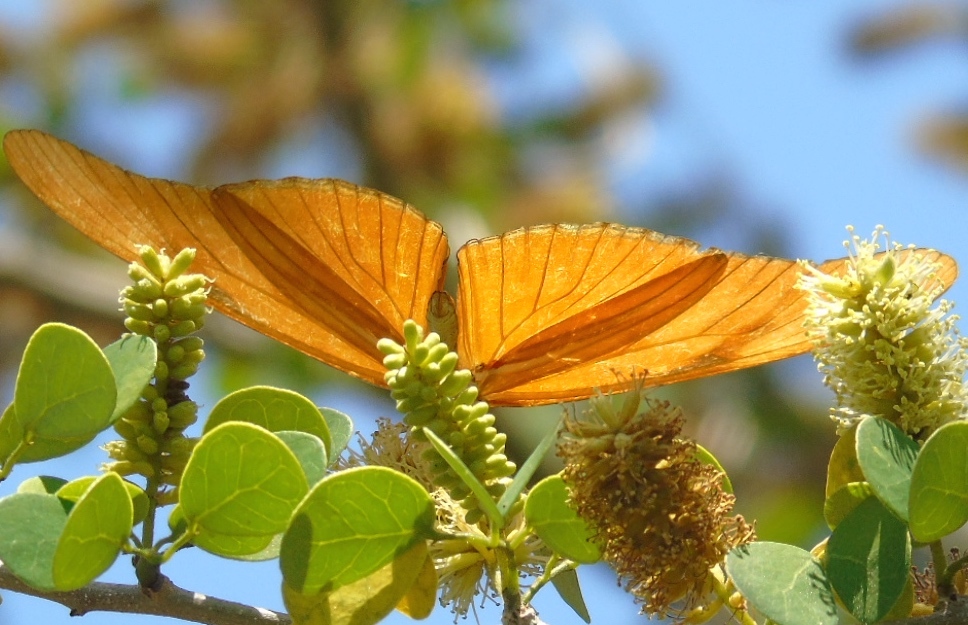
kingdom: Animalia
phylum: Arthropoda
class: Insecta
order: Lepidoptera
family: Nymphalidae
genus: Dryas
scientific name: Dryas iulia
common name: Flambeau
